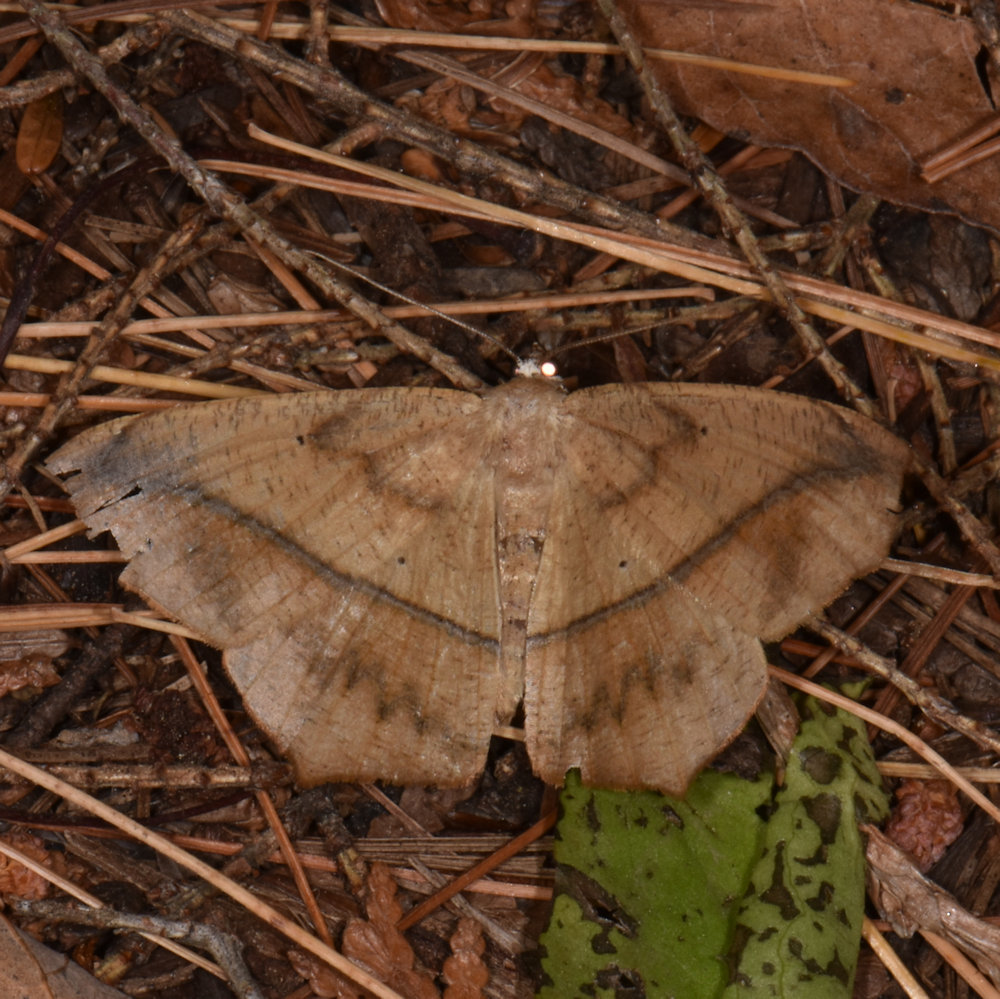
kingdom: Animalia
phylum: Arthropoda
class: Insecta
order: Lepidoptera
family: Geometridae
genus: Prochoerodes
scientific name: Prochoerodes lineola
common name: Large maple spanworm
